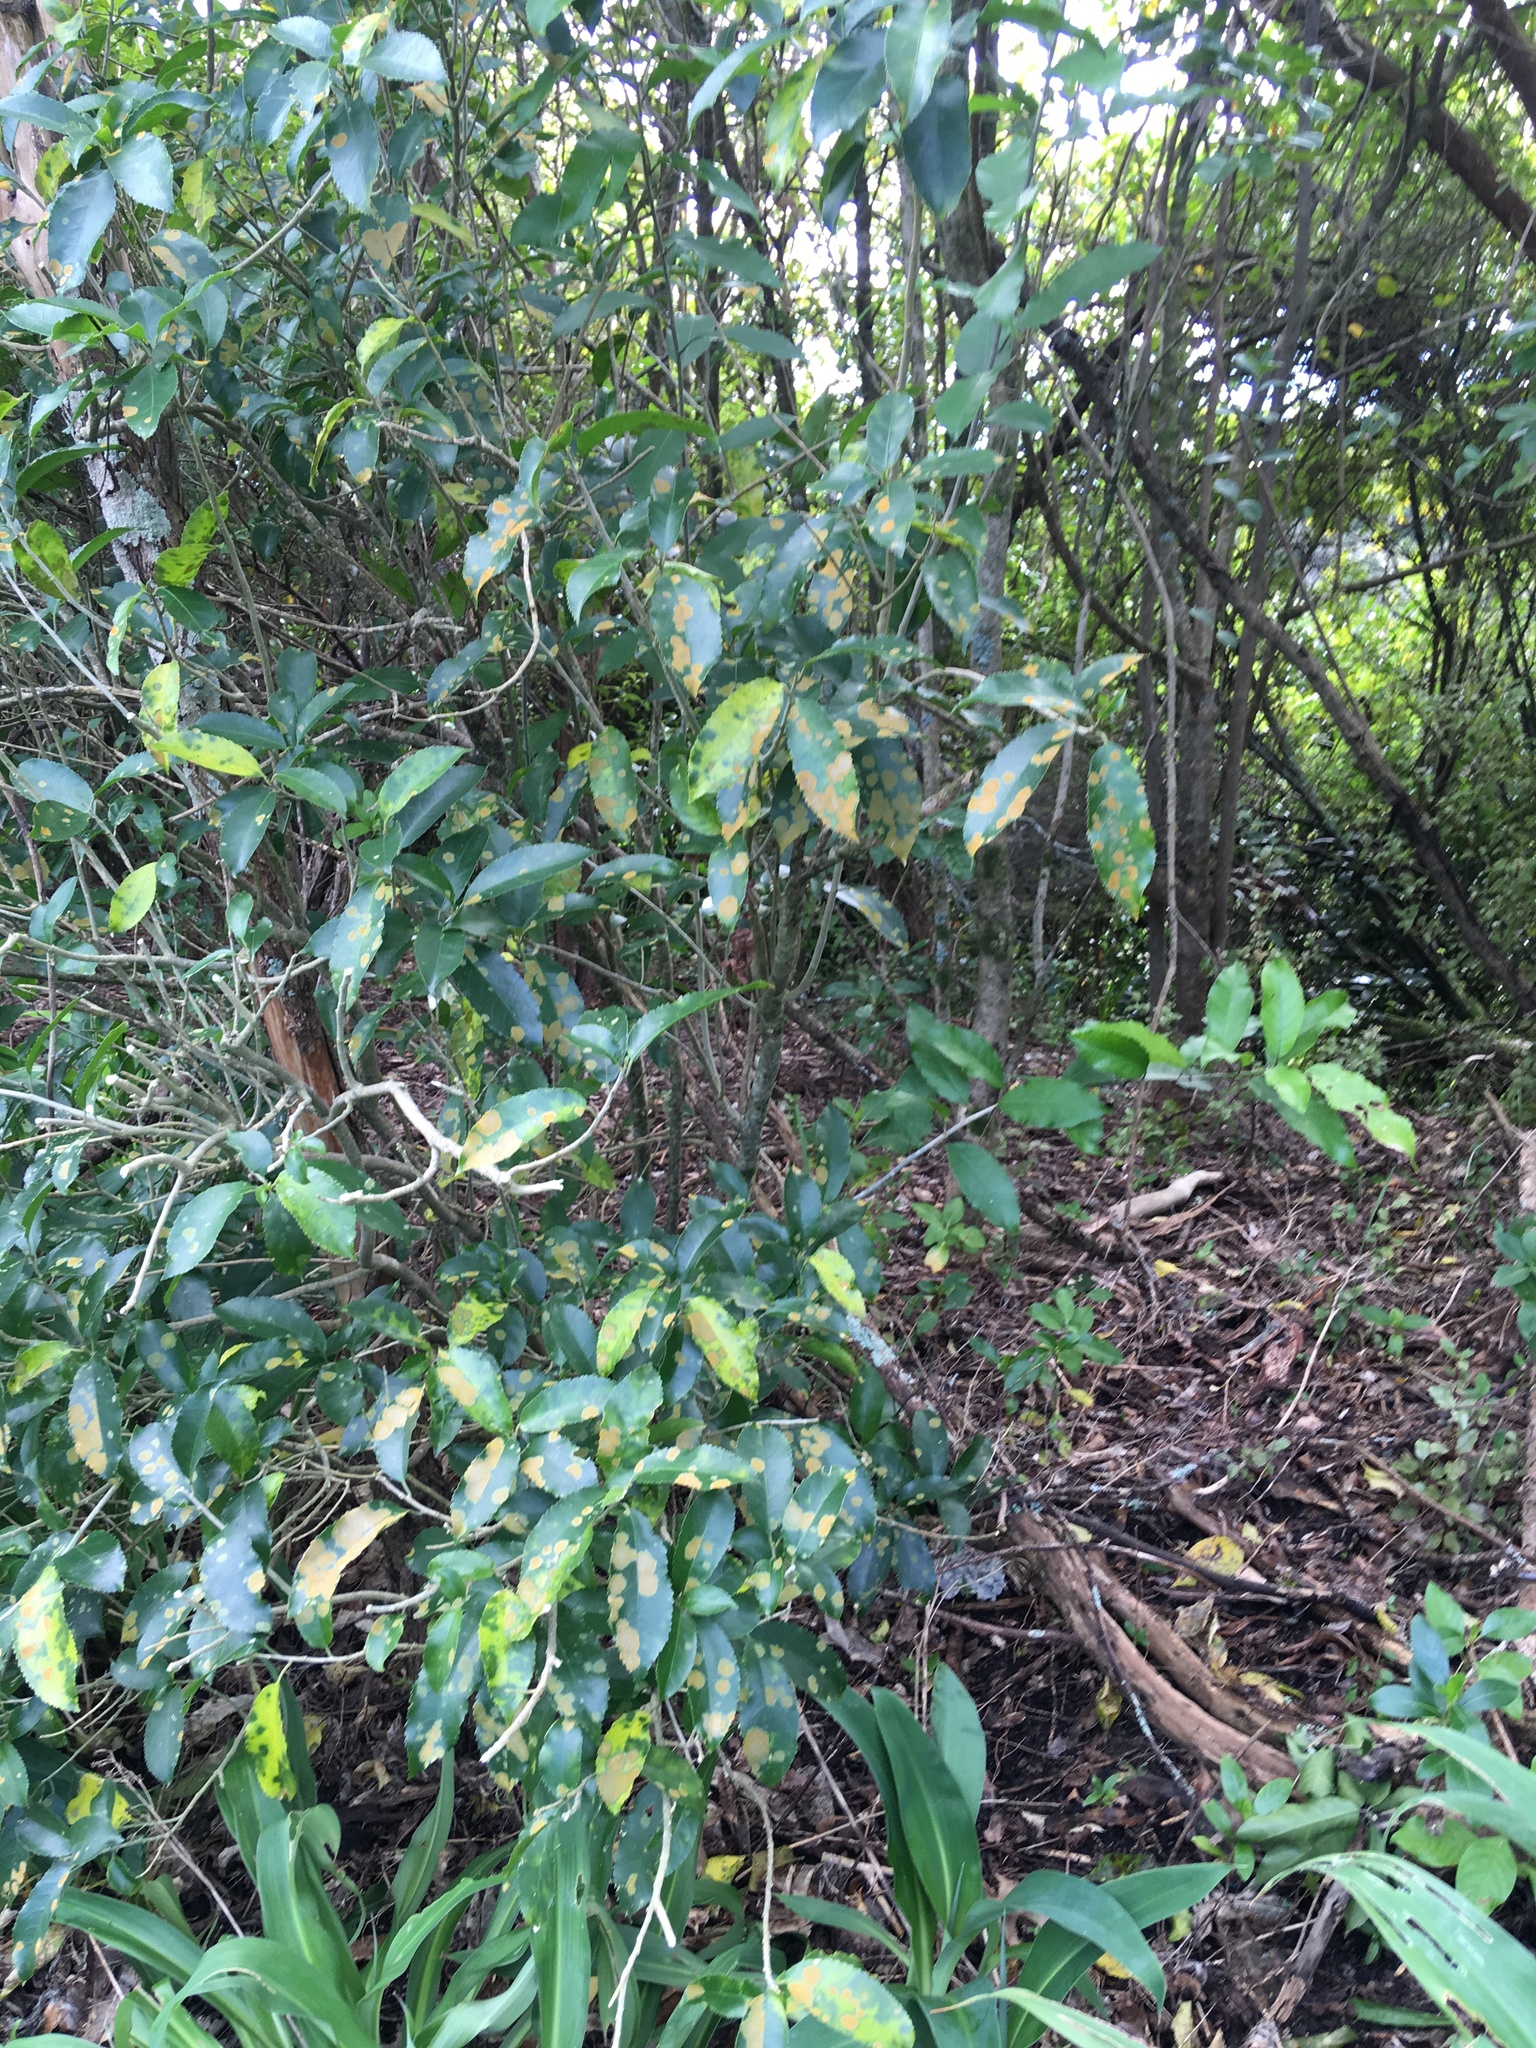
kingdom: Plantae
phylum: Tracheophyta
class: Magnoliopsida
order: Malpighiales
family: Violaceae
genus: Melicytus
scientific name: Melicytus ramiflorus
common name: Mahoe
